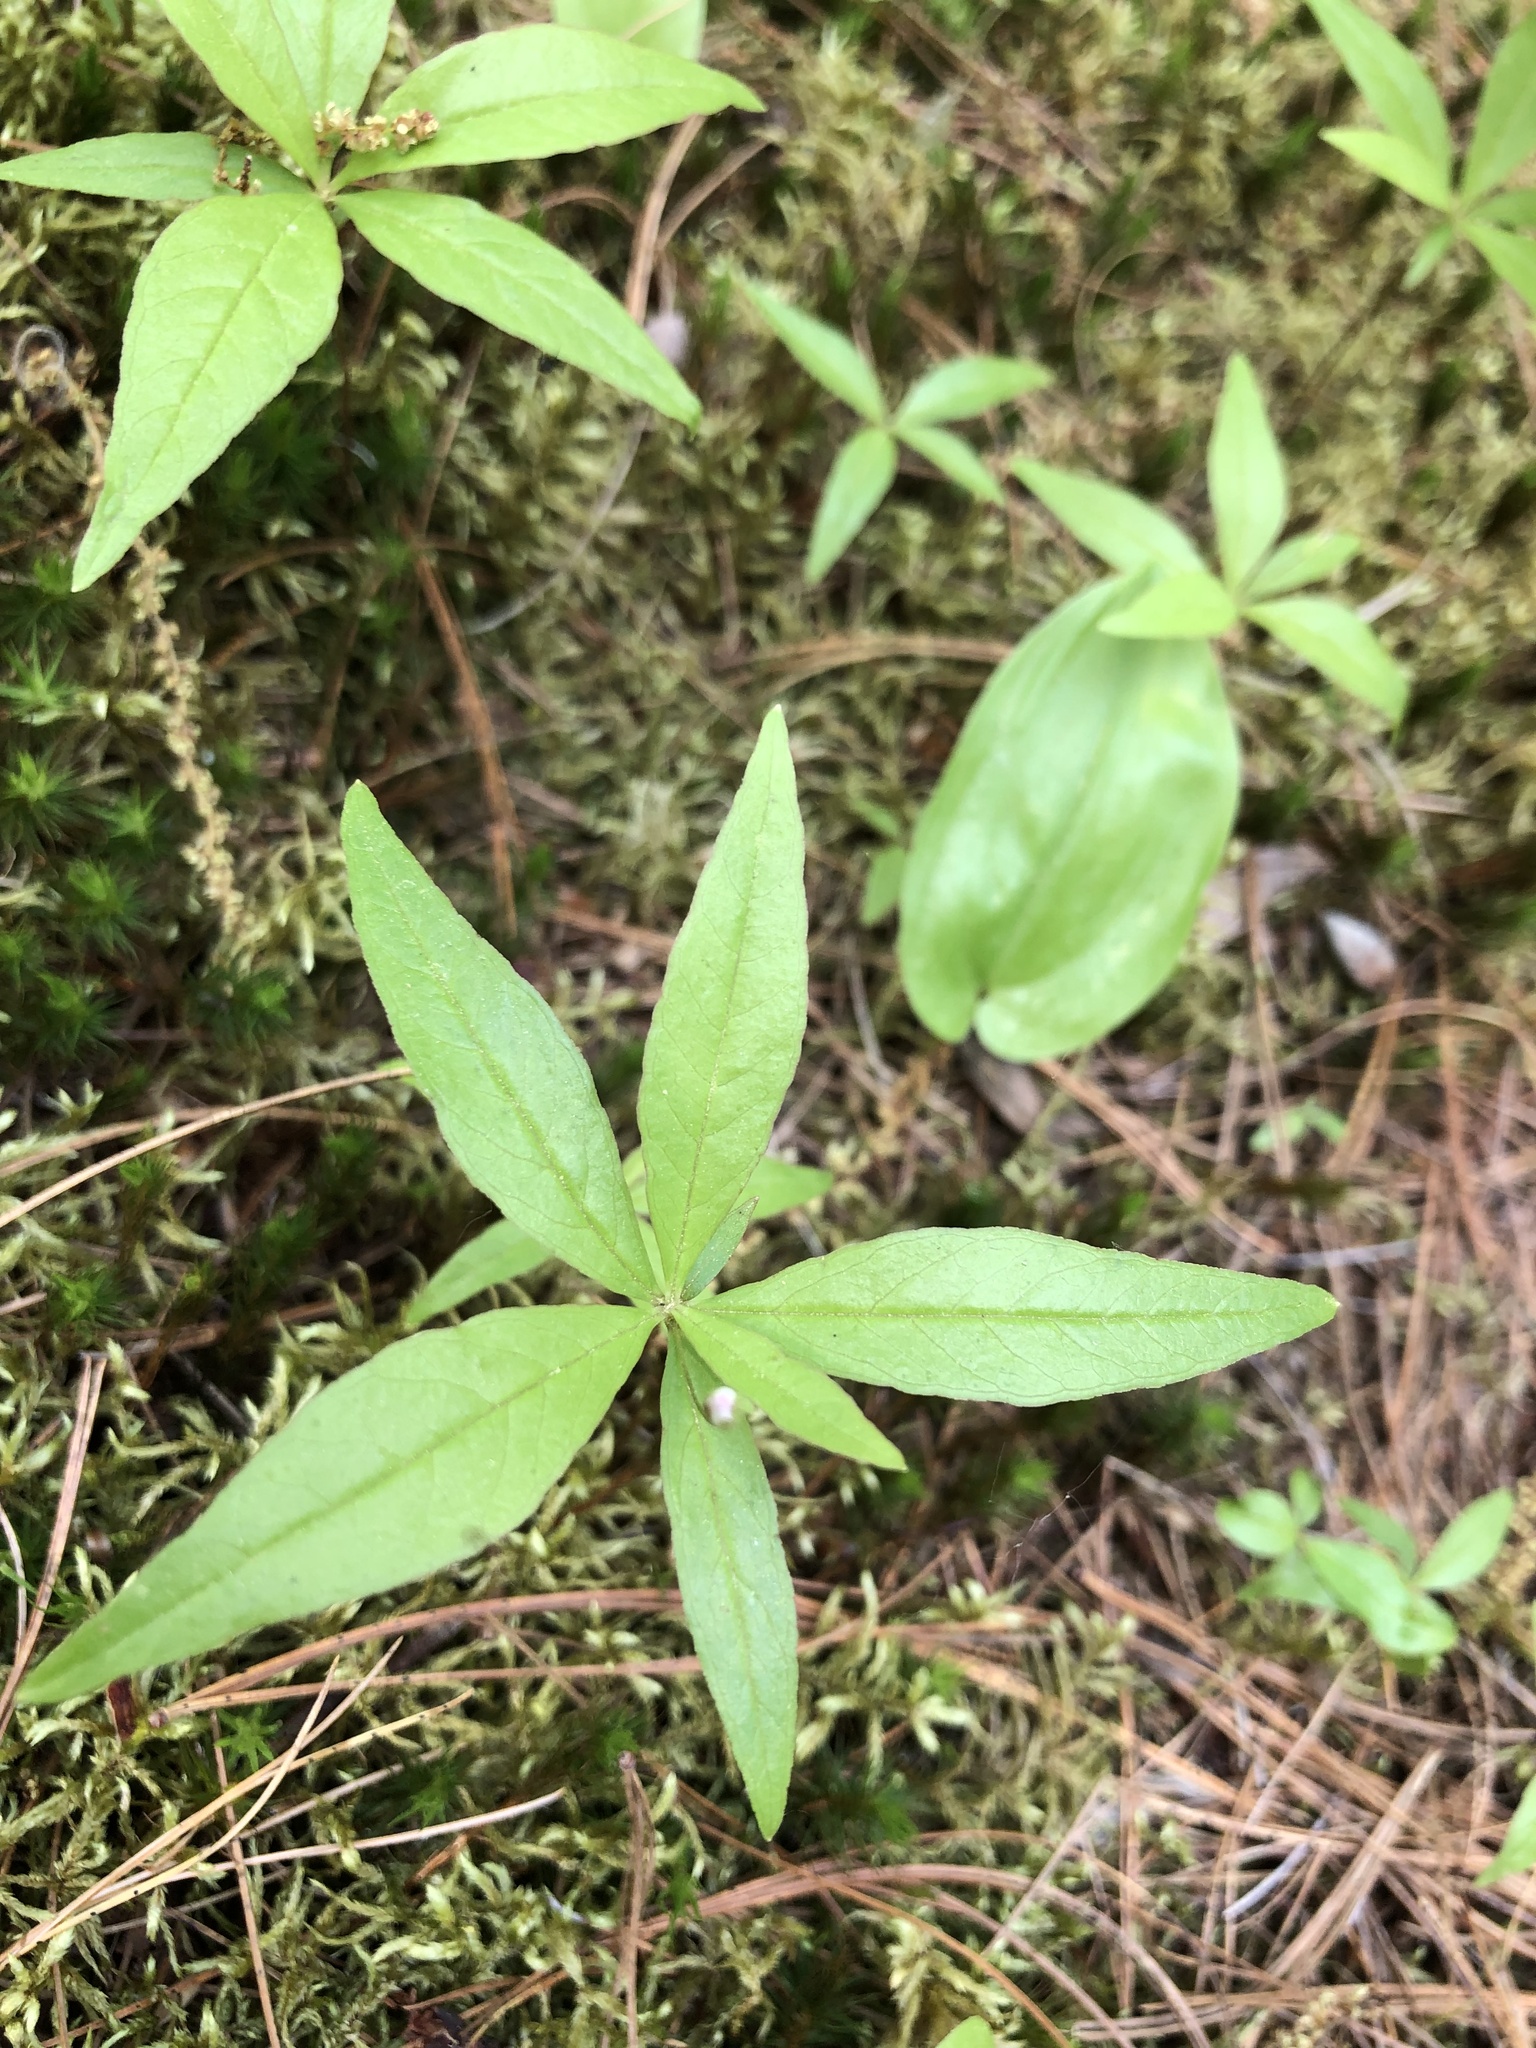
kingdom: Plantae
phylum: Tracheophyta
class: Magnoliopsida
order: Ericales
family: Primulaceae
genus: Lysimachia
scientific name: Lysimachia borealis
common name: American starflower
